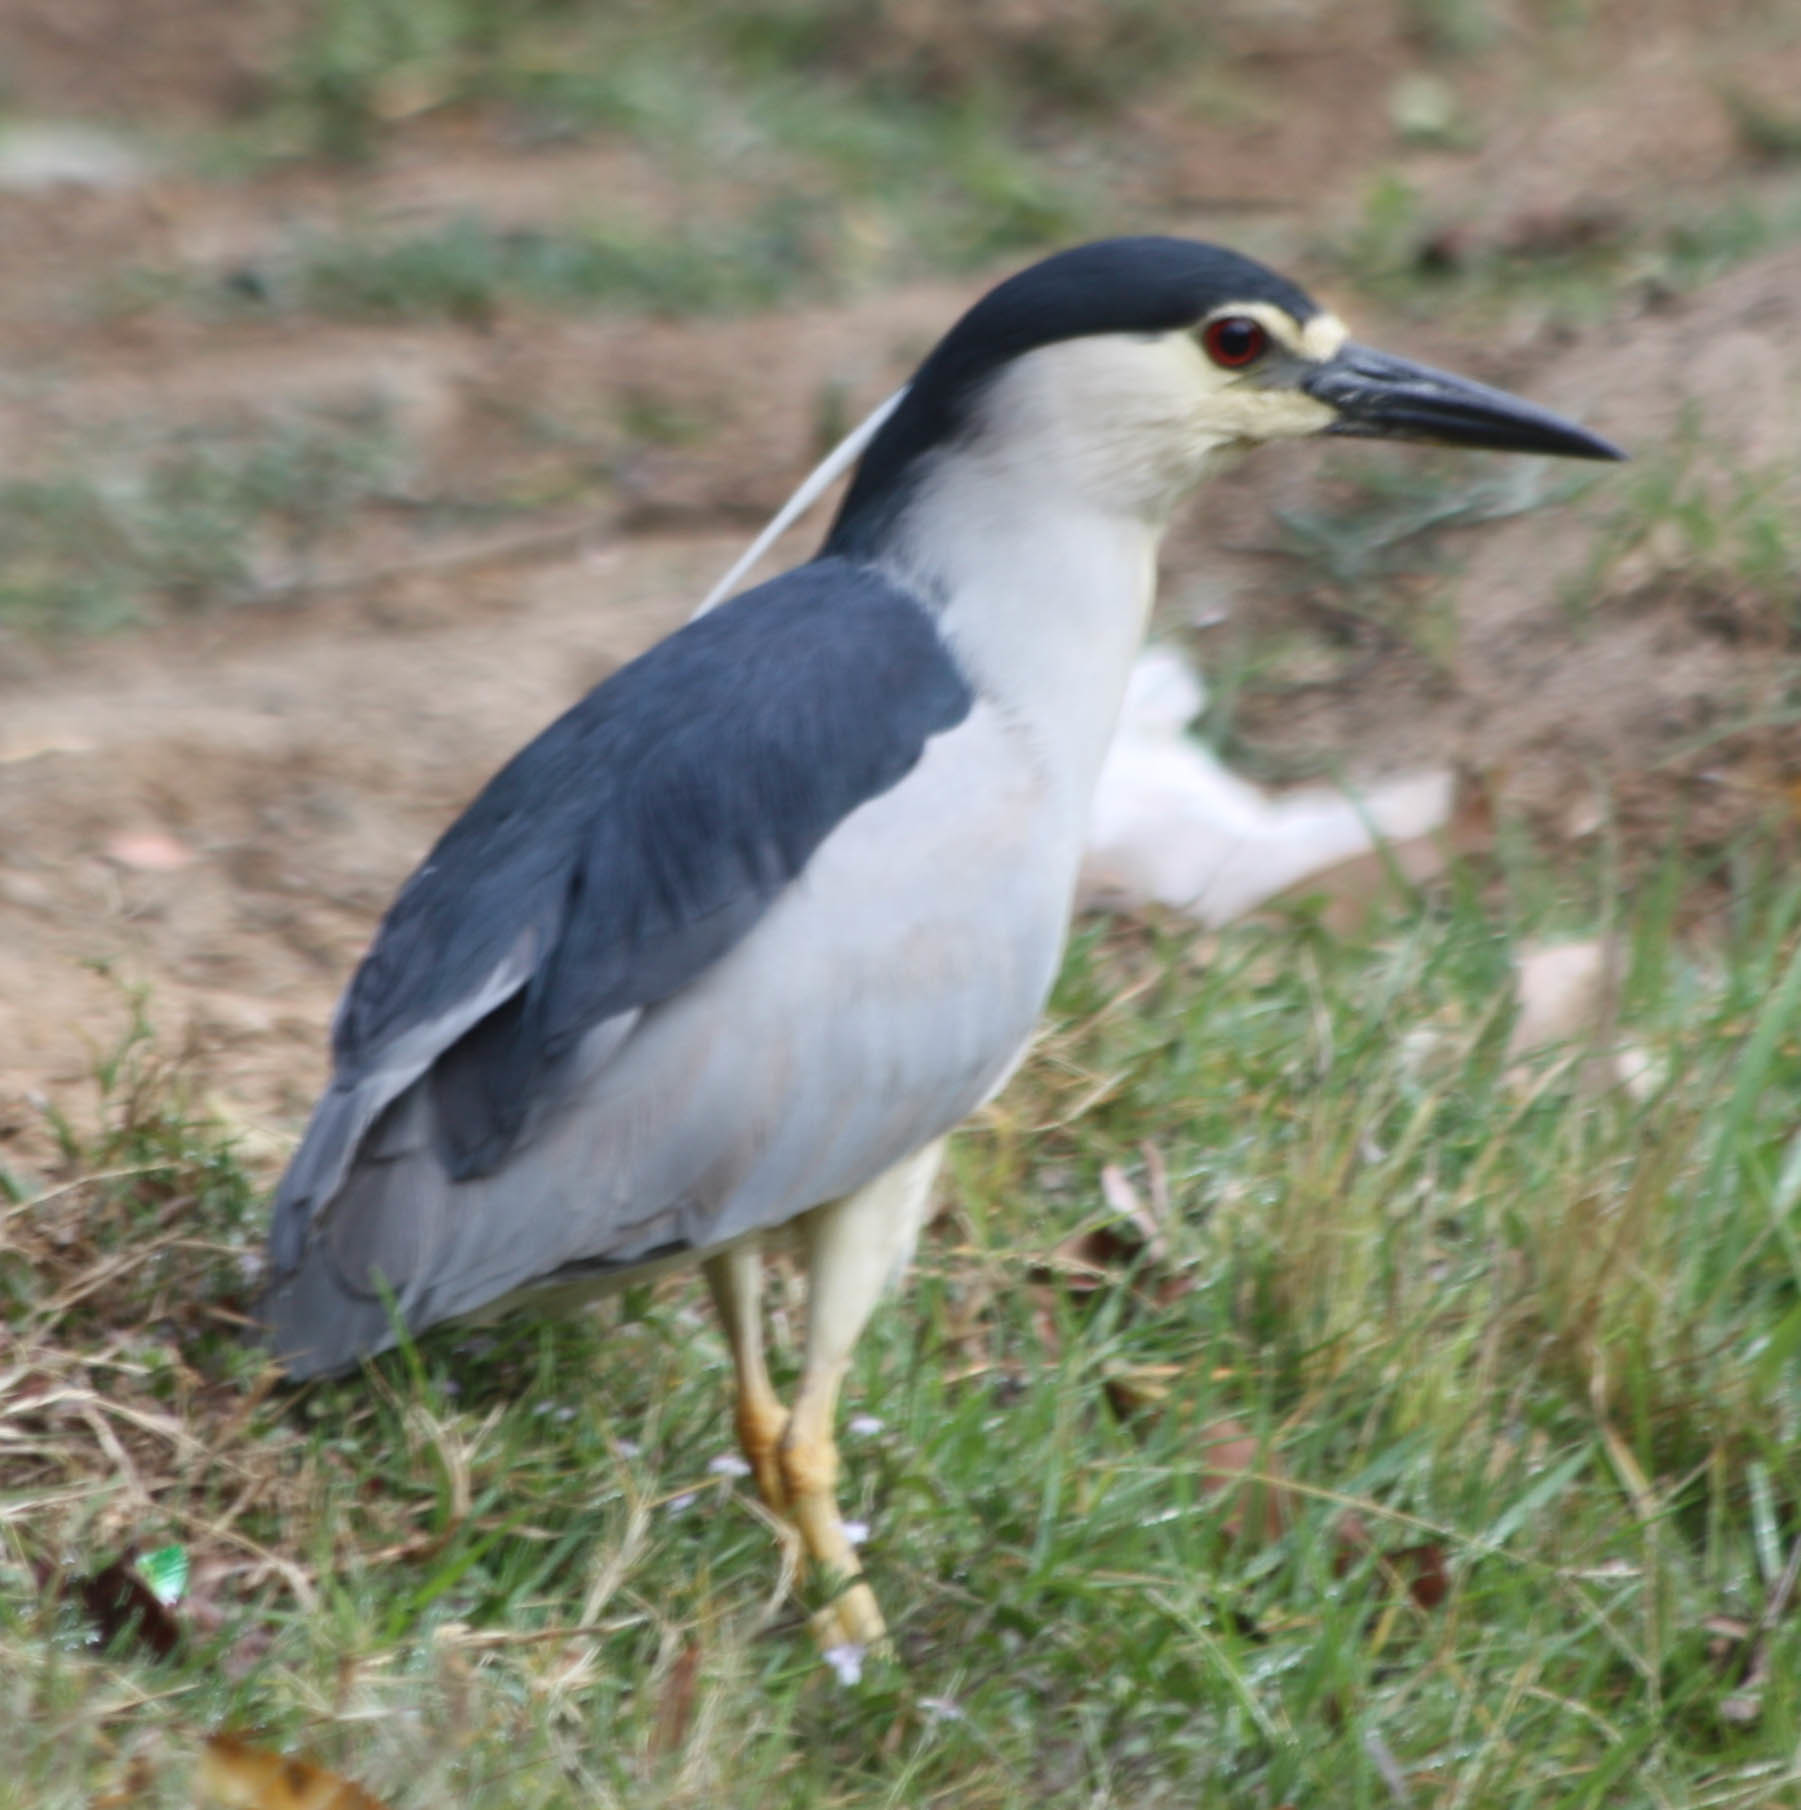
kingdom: Animalia
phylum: Chordata
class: Aves
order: Pelecaniformes
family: Ardeidae
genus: Nycticorax
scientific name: Nycticorax nycticorax
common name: Black-crowned night heron
